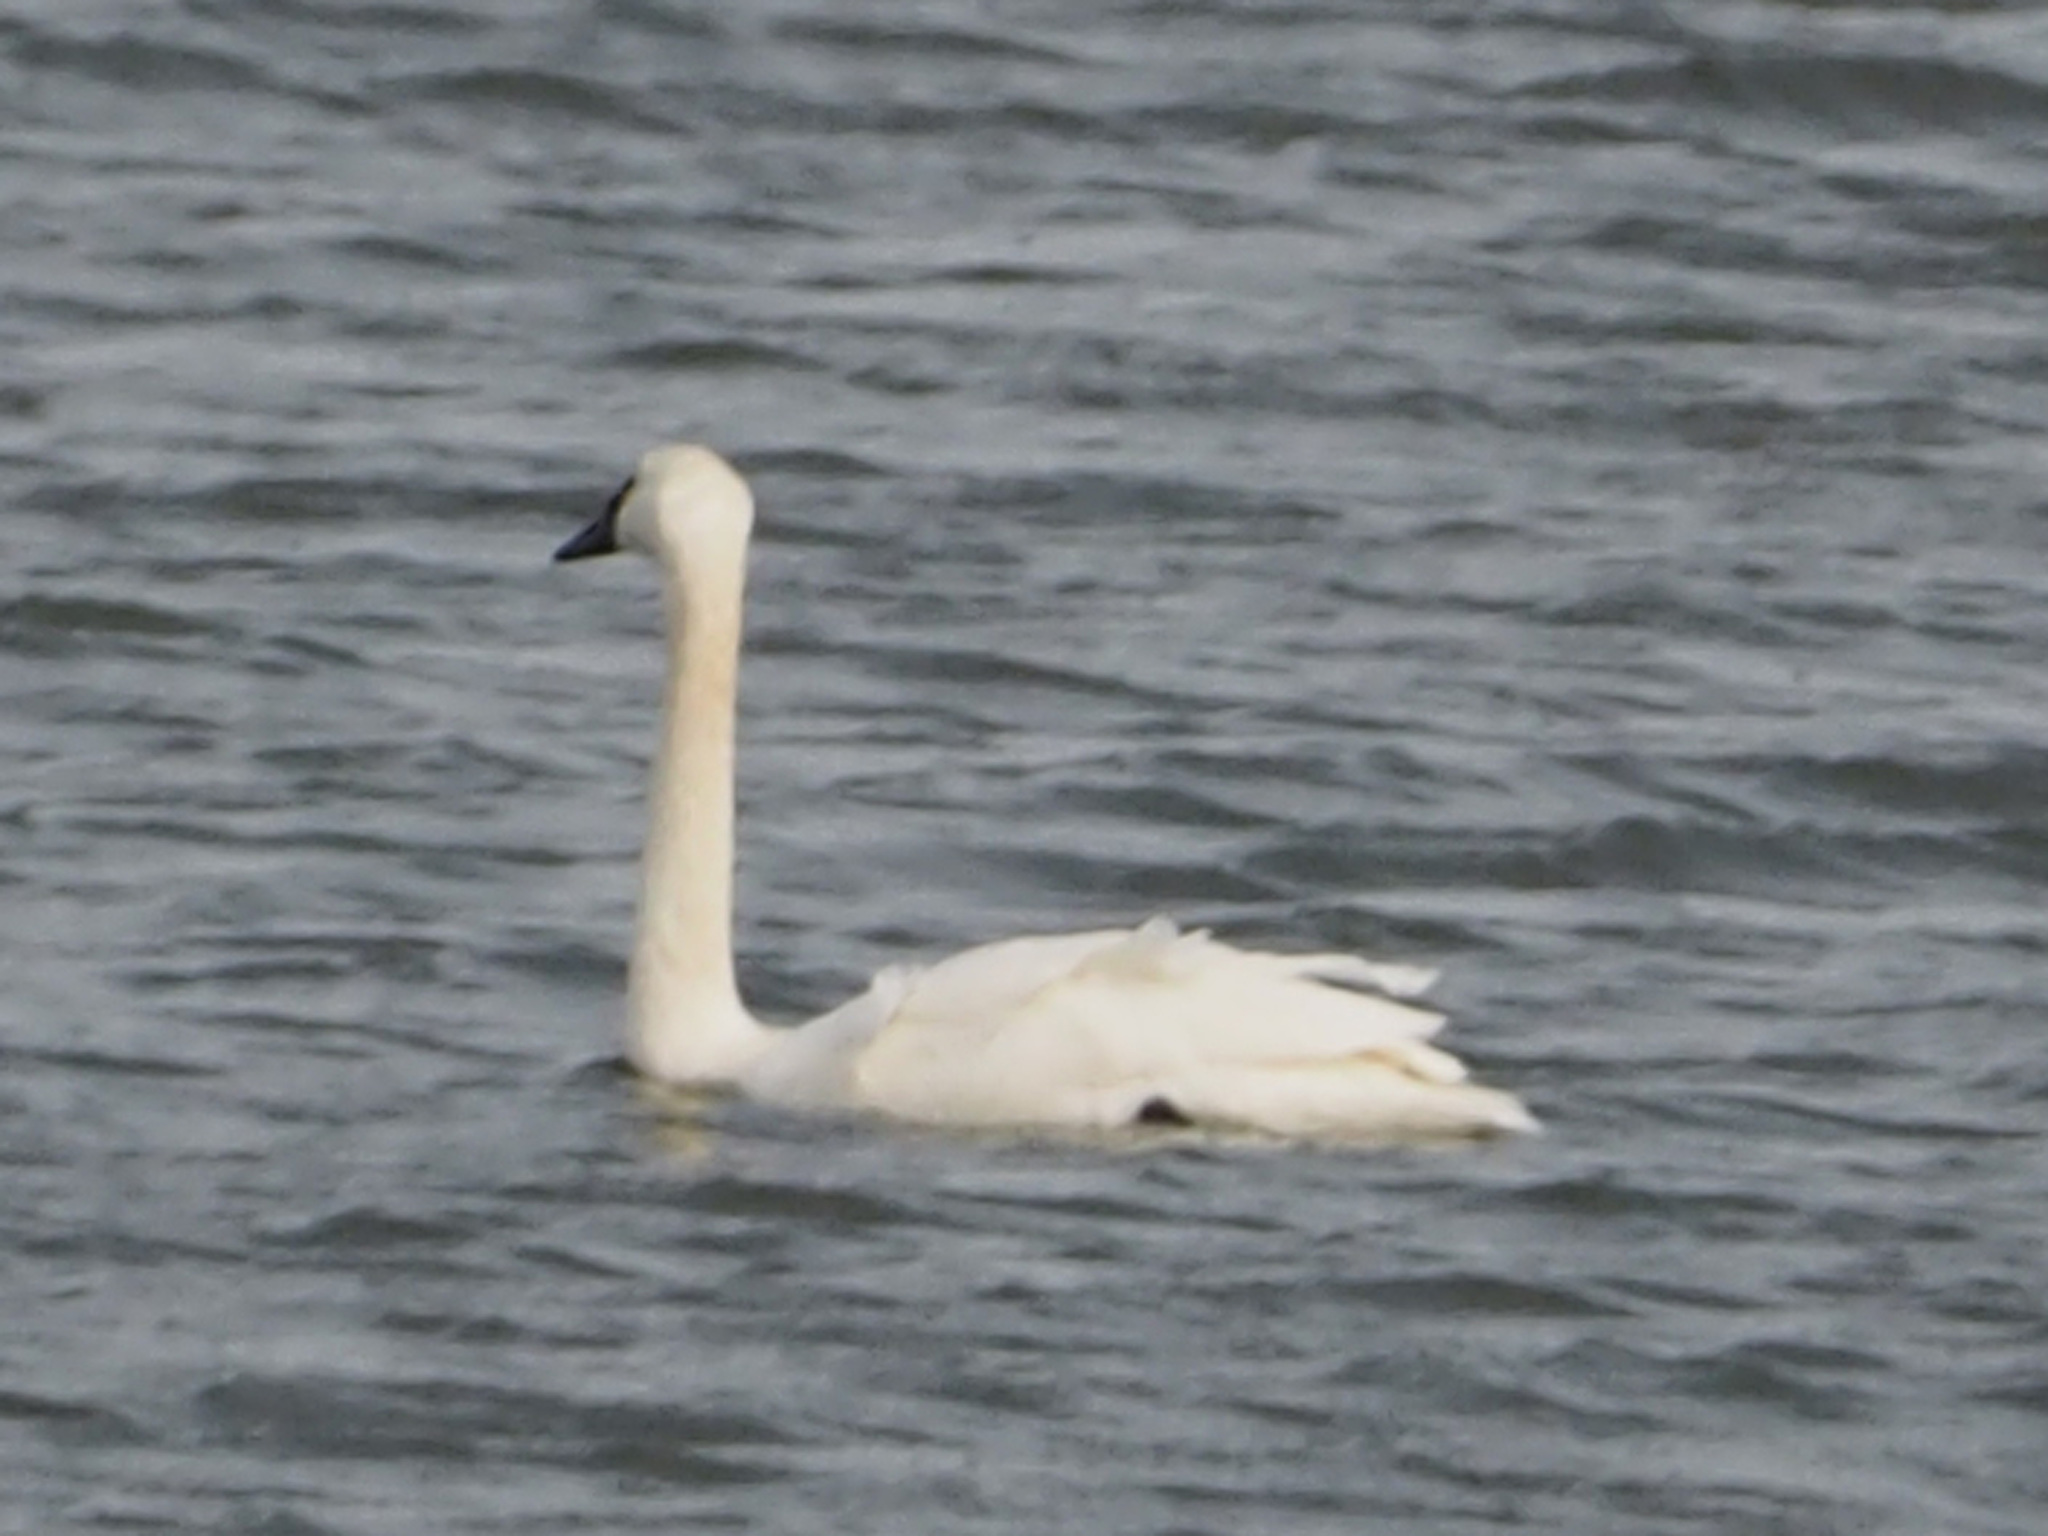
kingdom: Animalia
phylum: Chordata
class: Aves
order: Anseriformes
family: Anatidae
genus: Cygnus
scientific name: Cygnus columbianus
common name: Tundra swan
